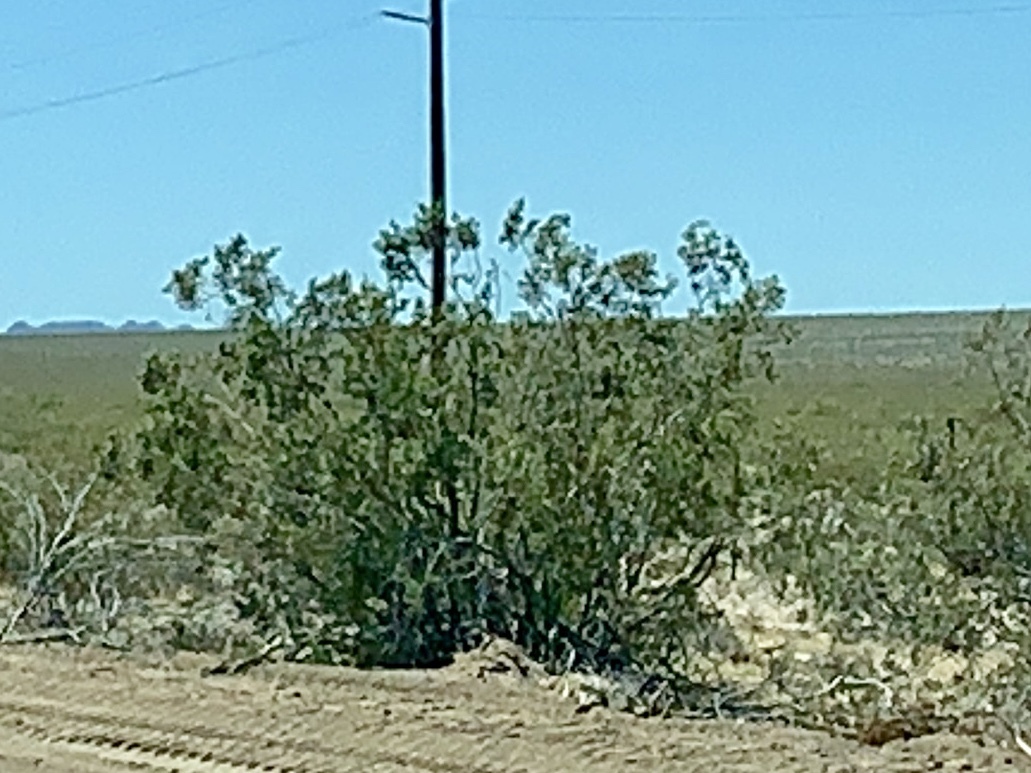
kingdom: Plantae
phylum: Tracheophyta
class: Magnoliopsida
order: Zygophyllales
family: Zygophyllaceae
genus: Larrea
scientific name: Larrea tridentata
